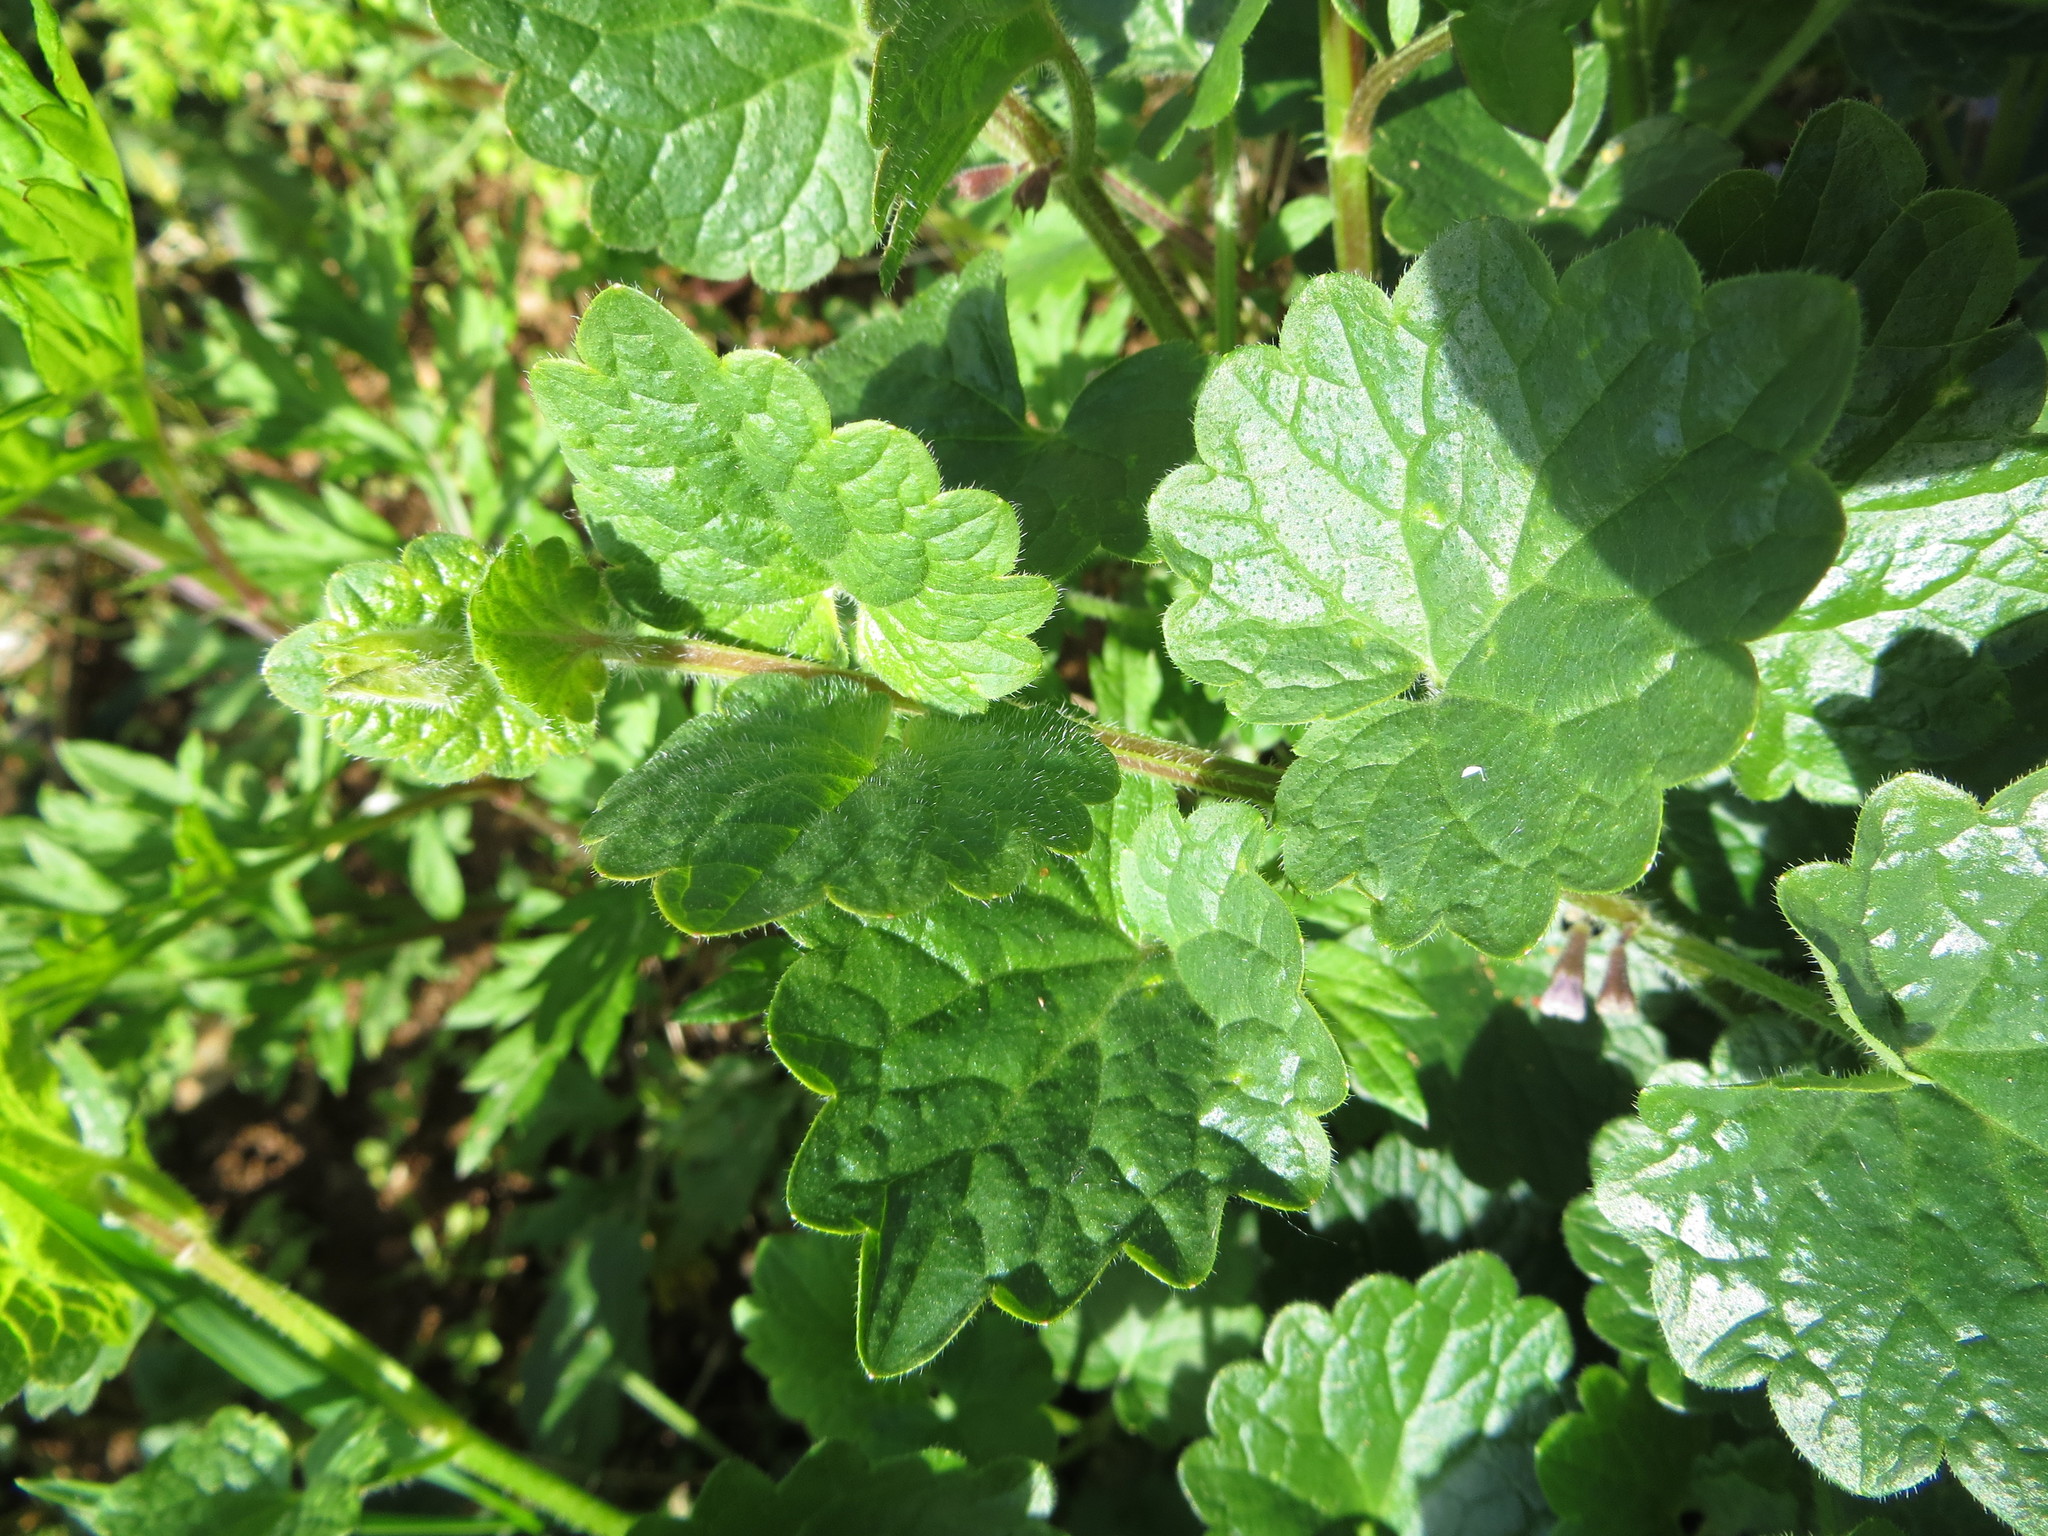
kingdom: Plantae
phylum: Tracheophyta
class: Magnoliopsida
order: Lamiales
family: Lamiaceae
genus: Glechoma
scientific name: Glechoma hederacea
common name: Ground ivy
